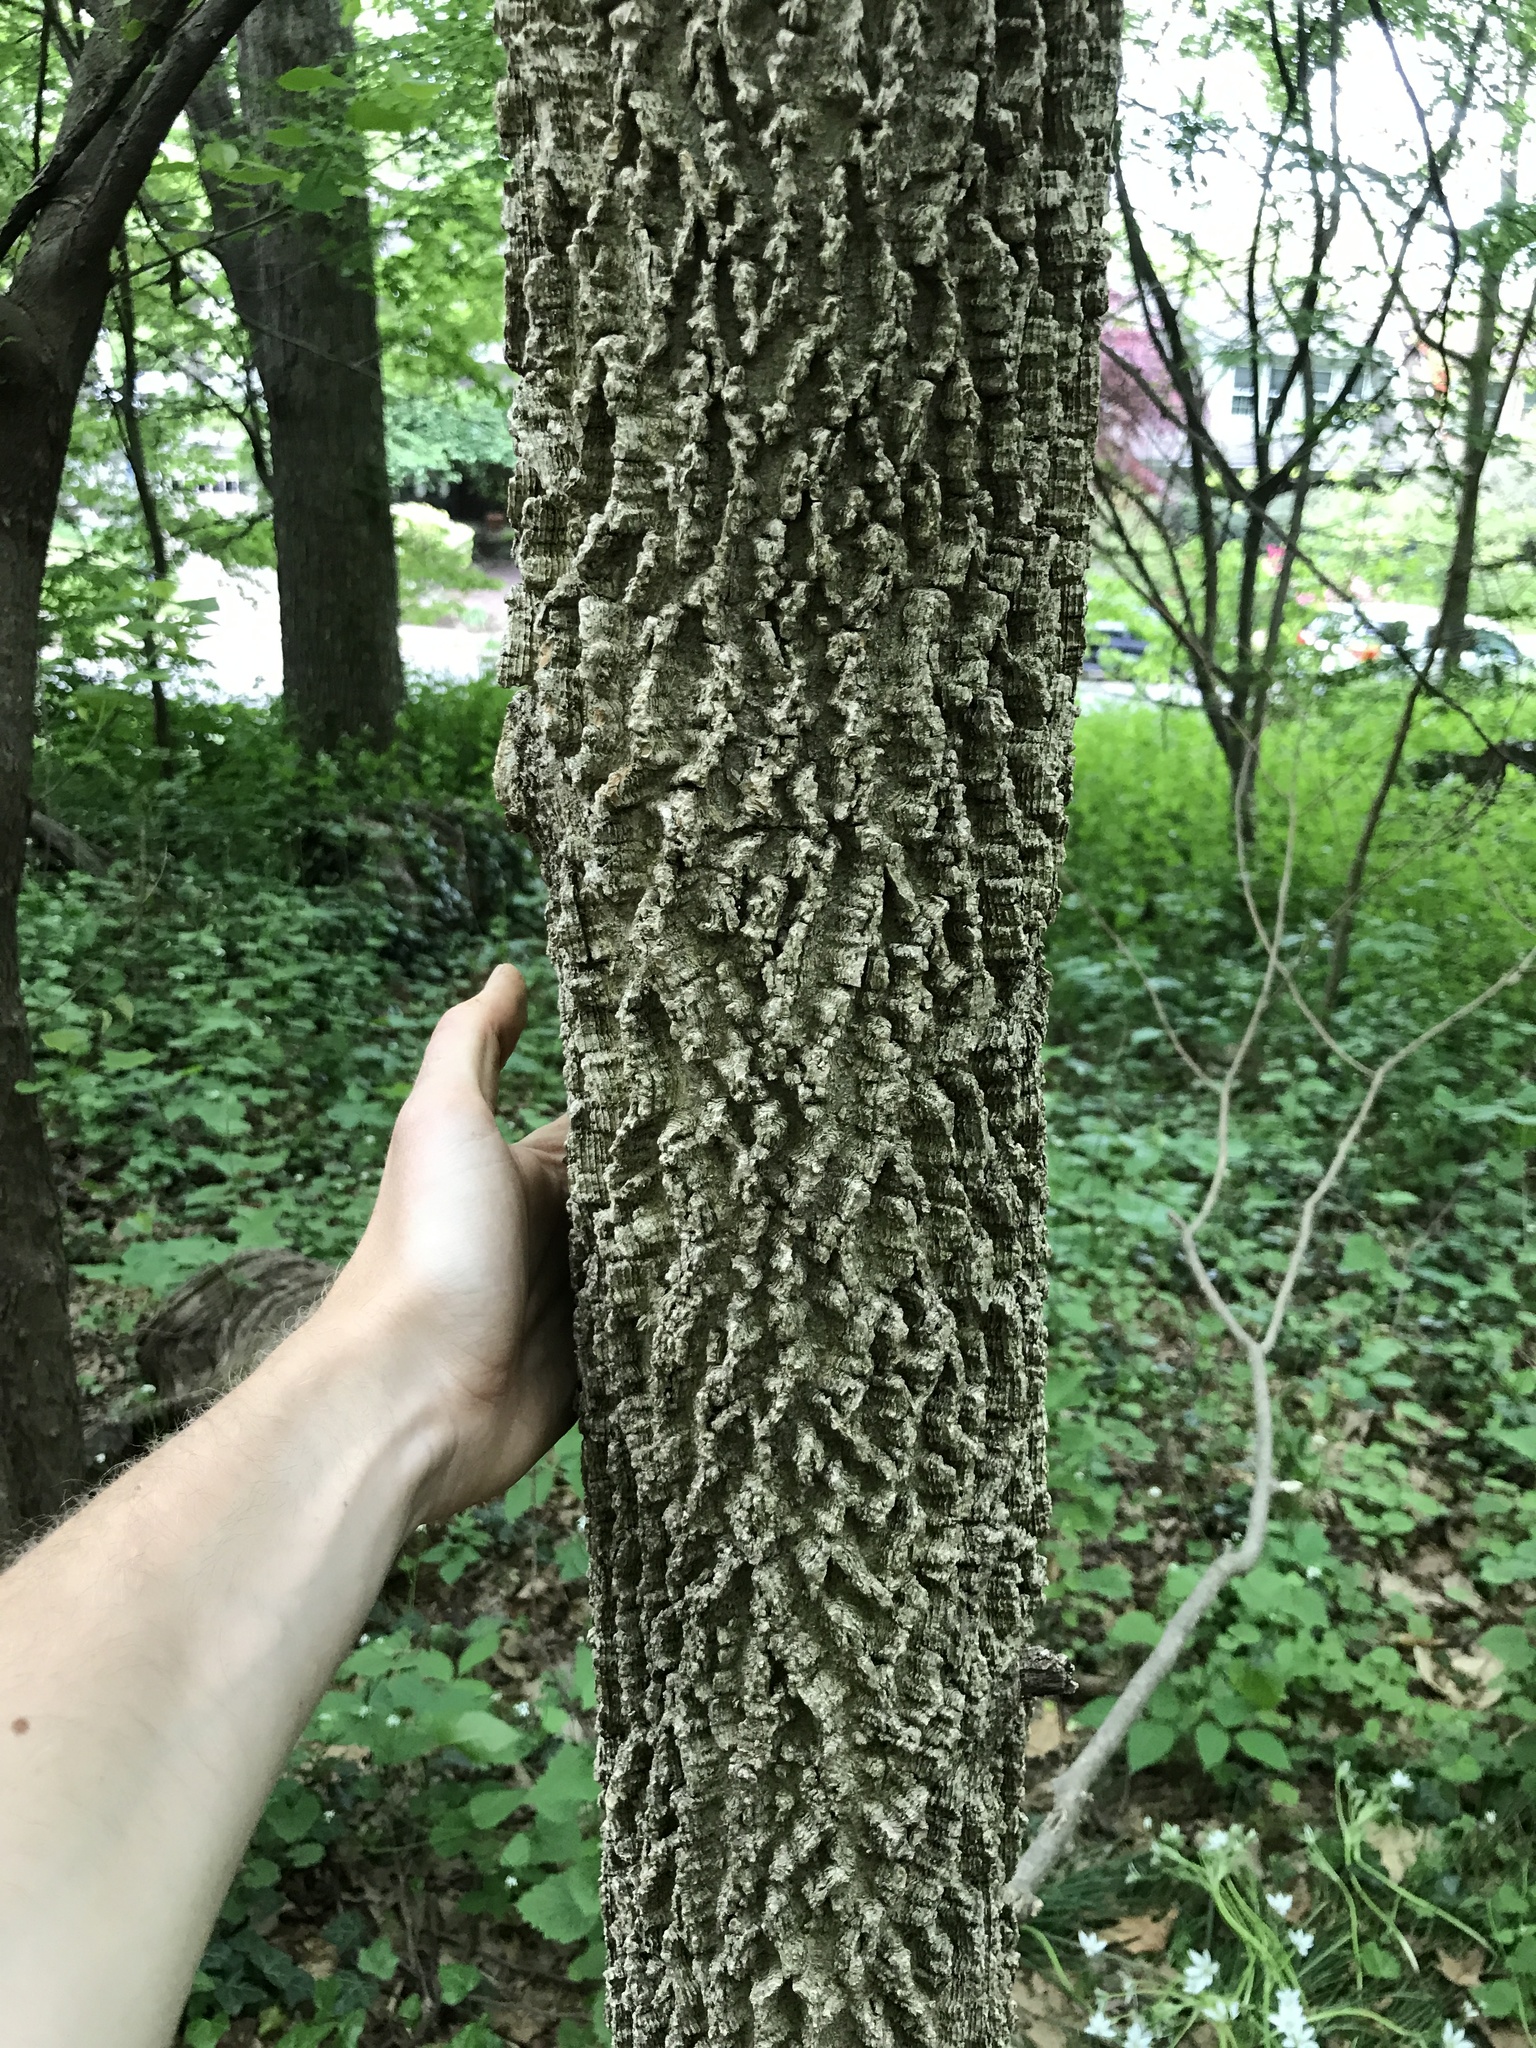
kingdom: Plantae
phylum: Tracheophyta
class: Magnoliopsida
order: Rosales
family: Cannabaceae
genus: Celtis
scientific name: Celtis occidentalis
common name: Common hackberry
